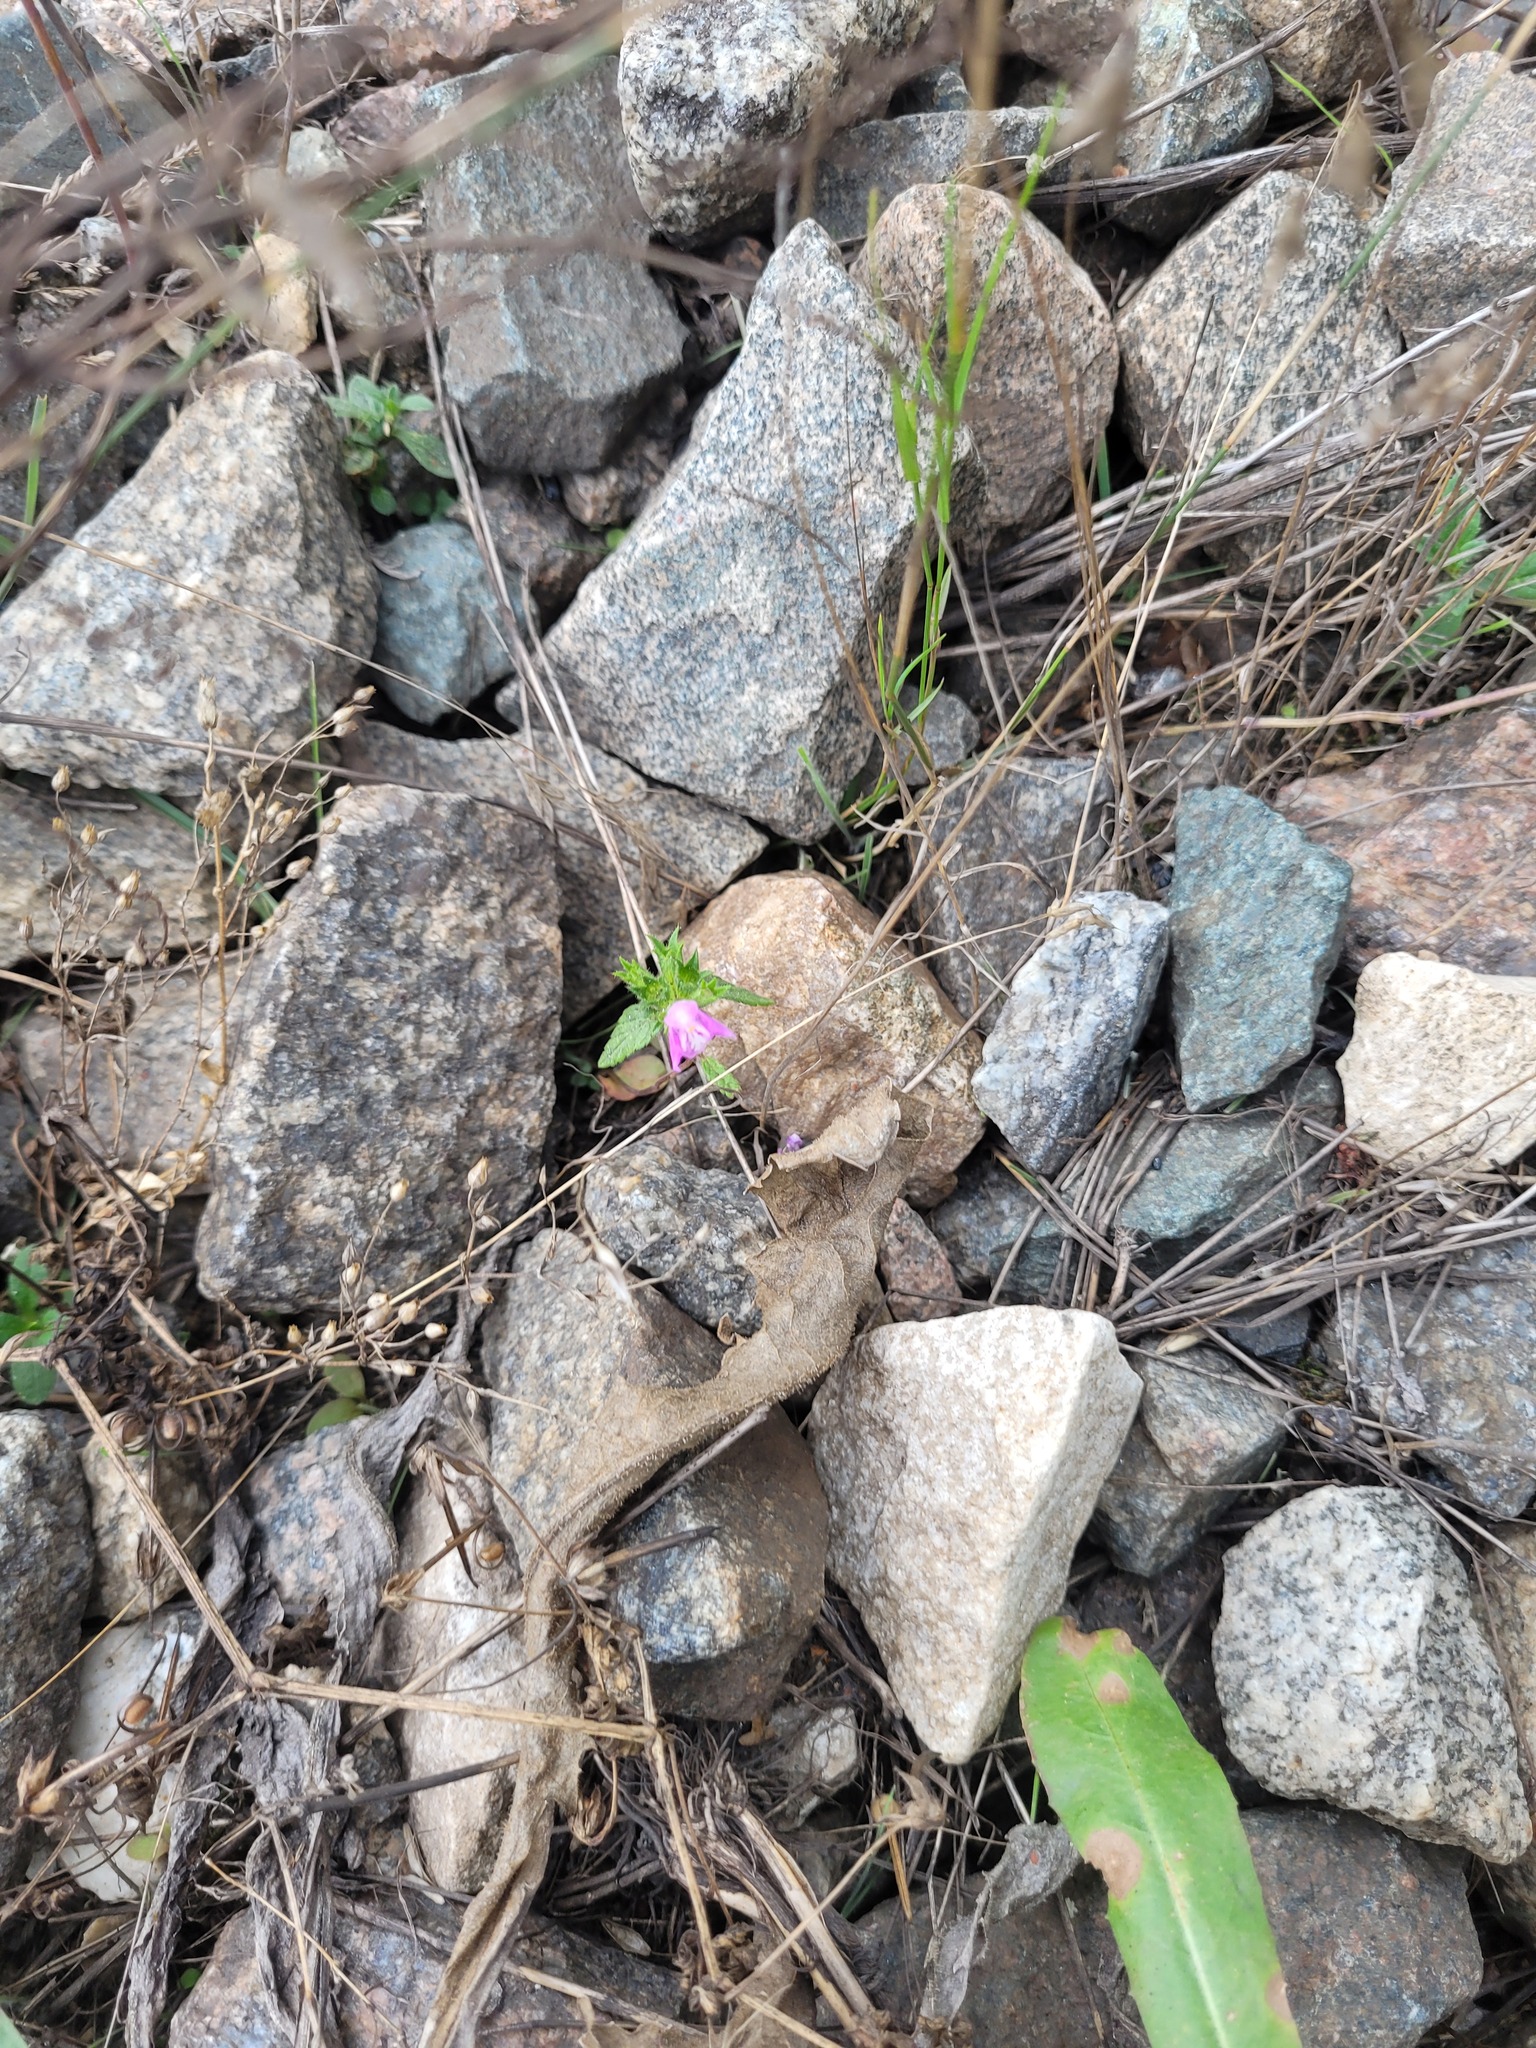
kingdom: Plantae
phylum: Tracheophyta
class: Magnoliopsida
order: Lamiales
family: Lamiaceae
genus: Galeopsis
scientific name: Galeopsis ladanum
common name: Broad-leaved hemp-nettle
